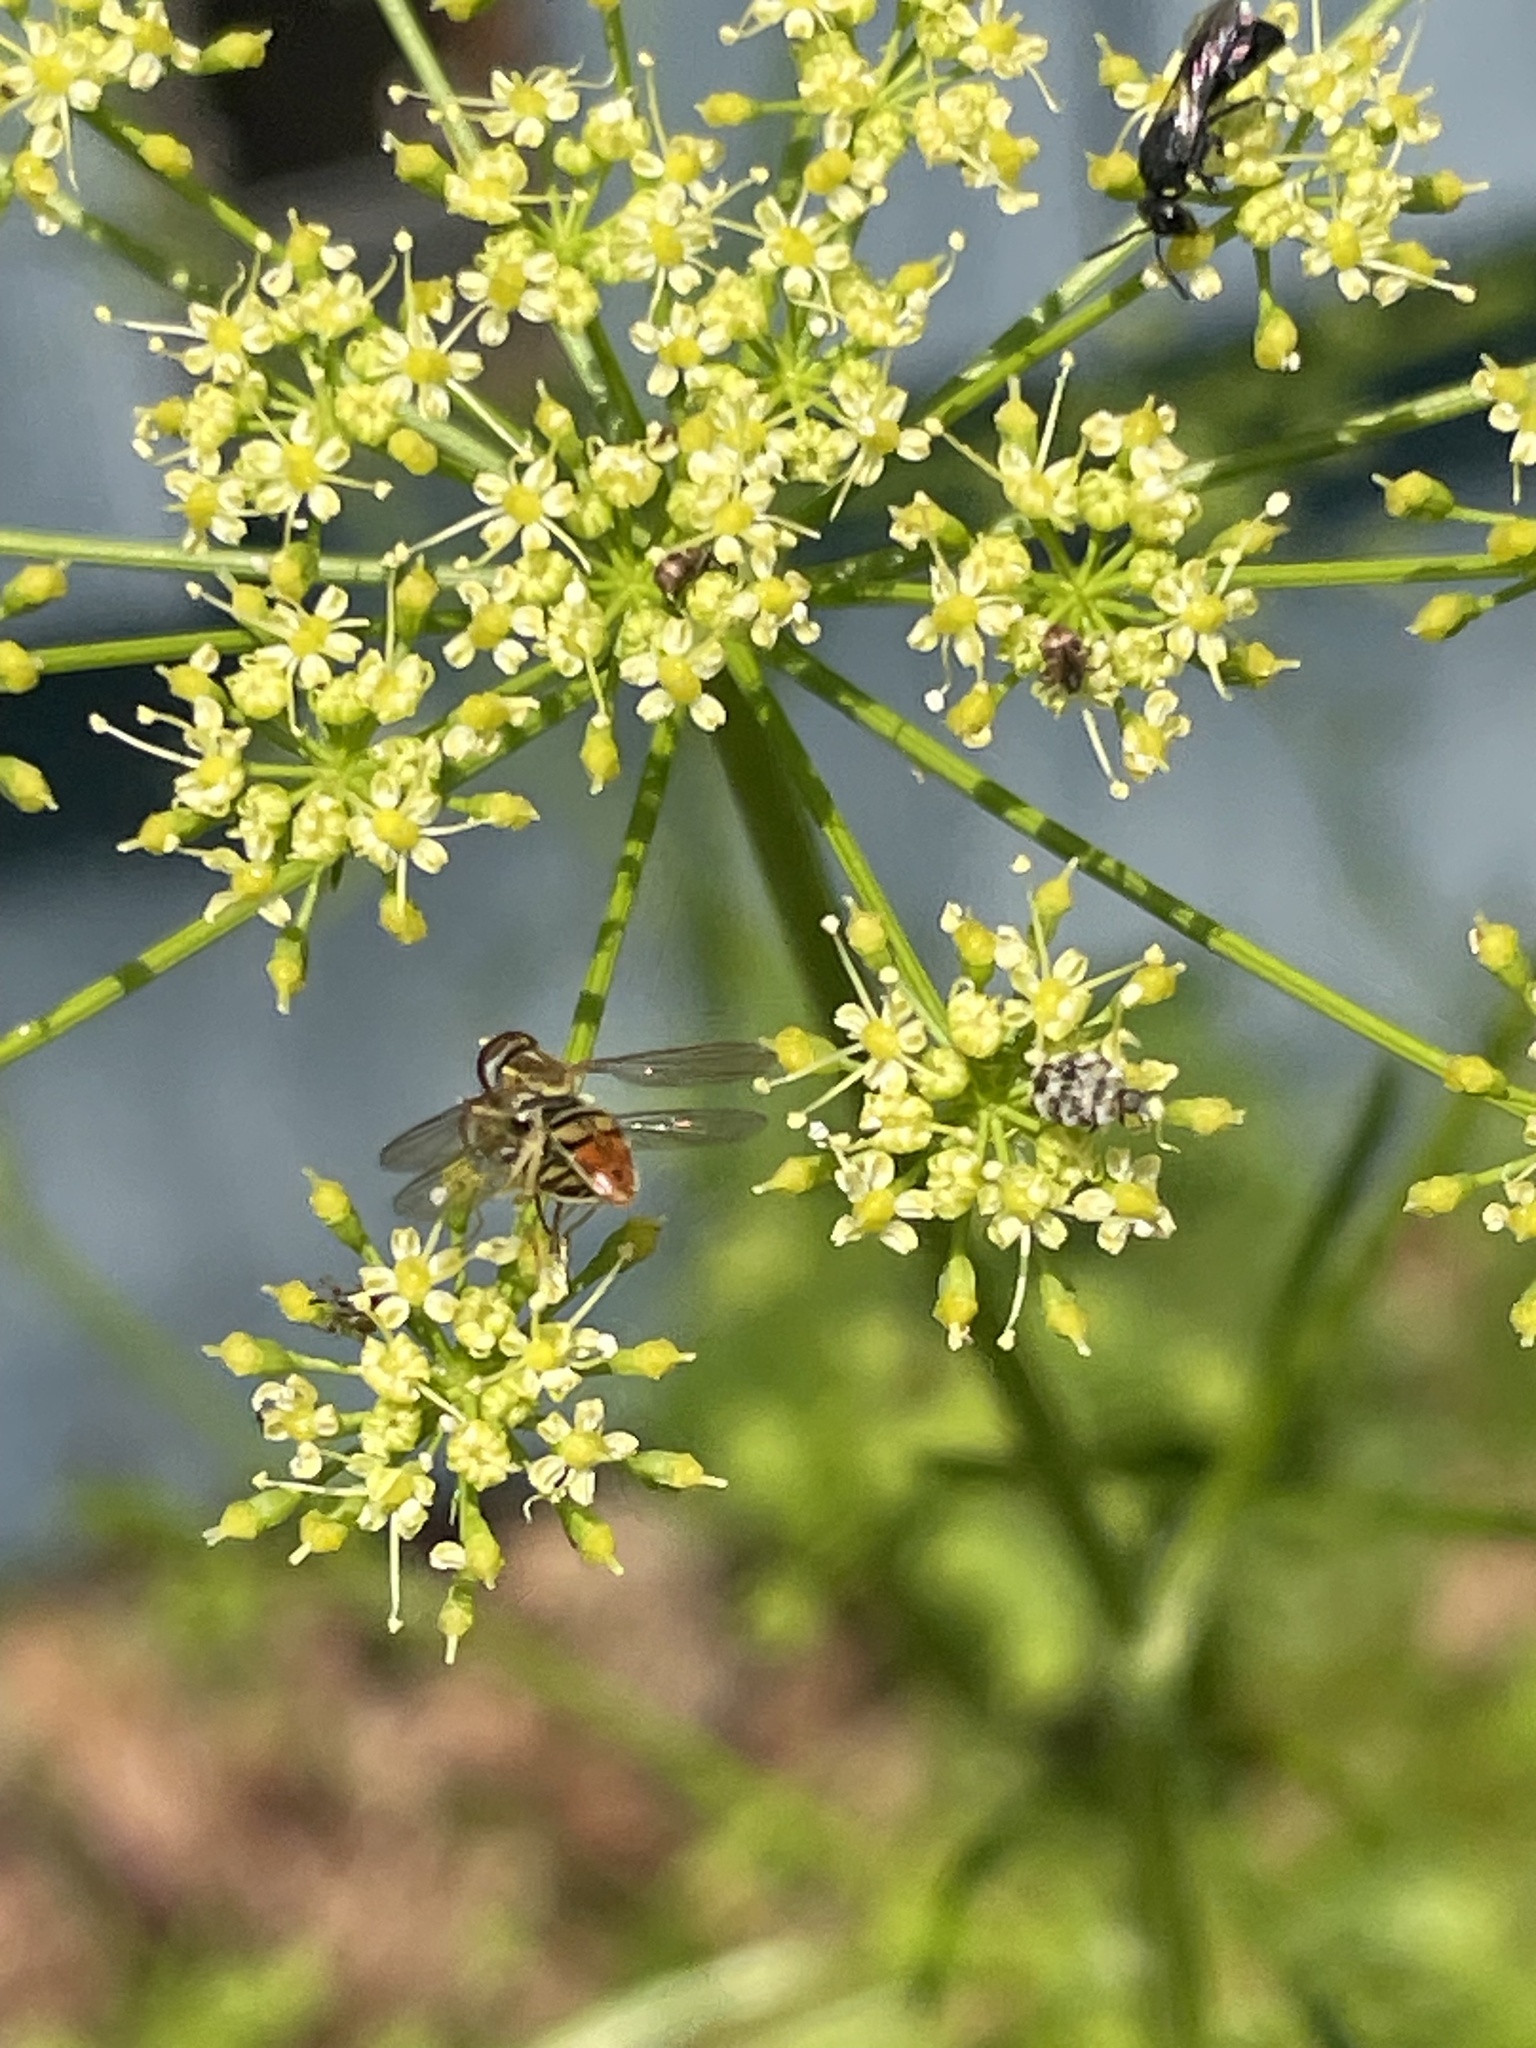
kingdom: Animalia
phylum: Arthropoda
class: Insecta
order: Diptera
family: Syrphidae
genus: Toxomerus
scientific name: Toxomerus marginatus
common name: Syrphid fly
